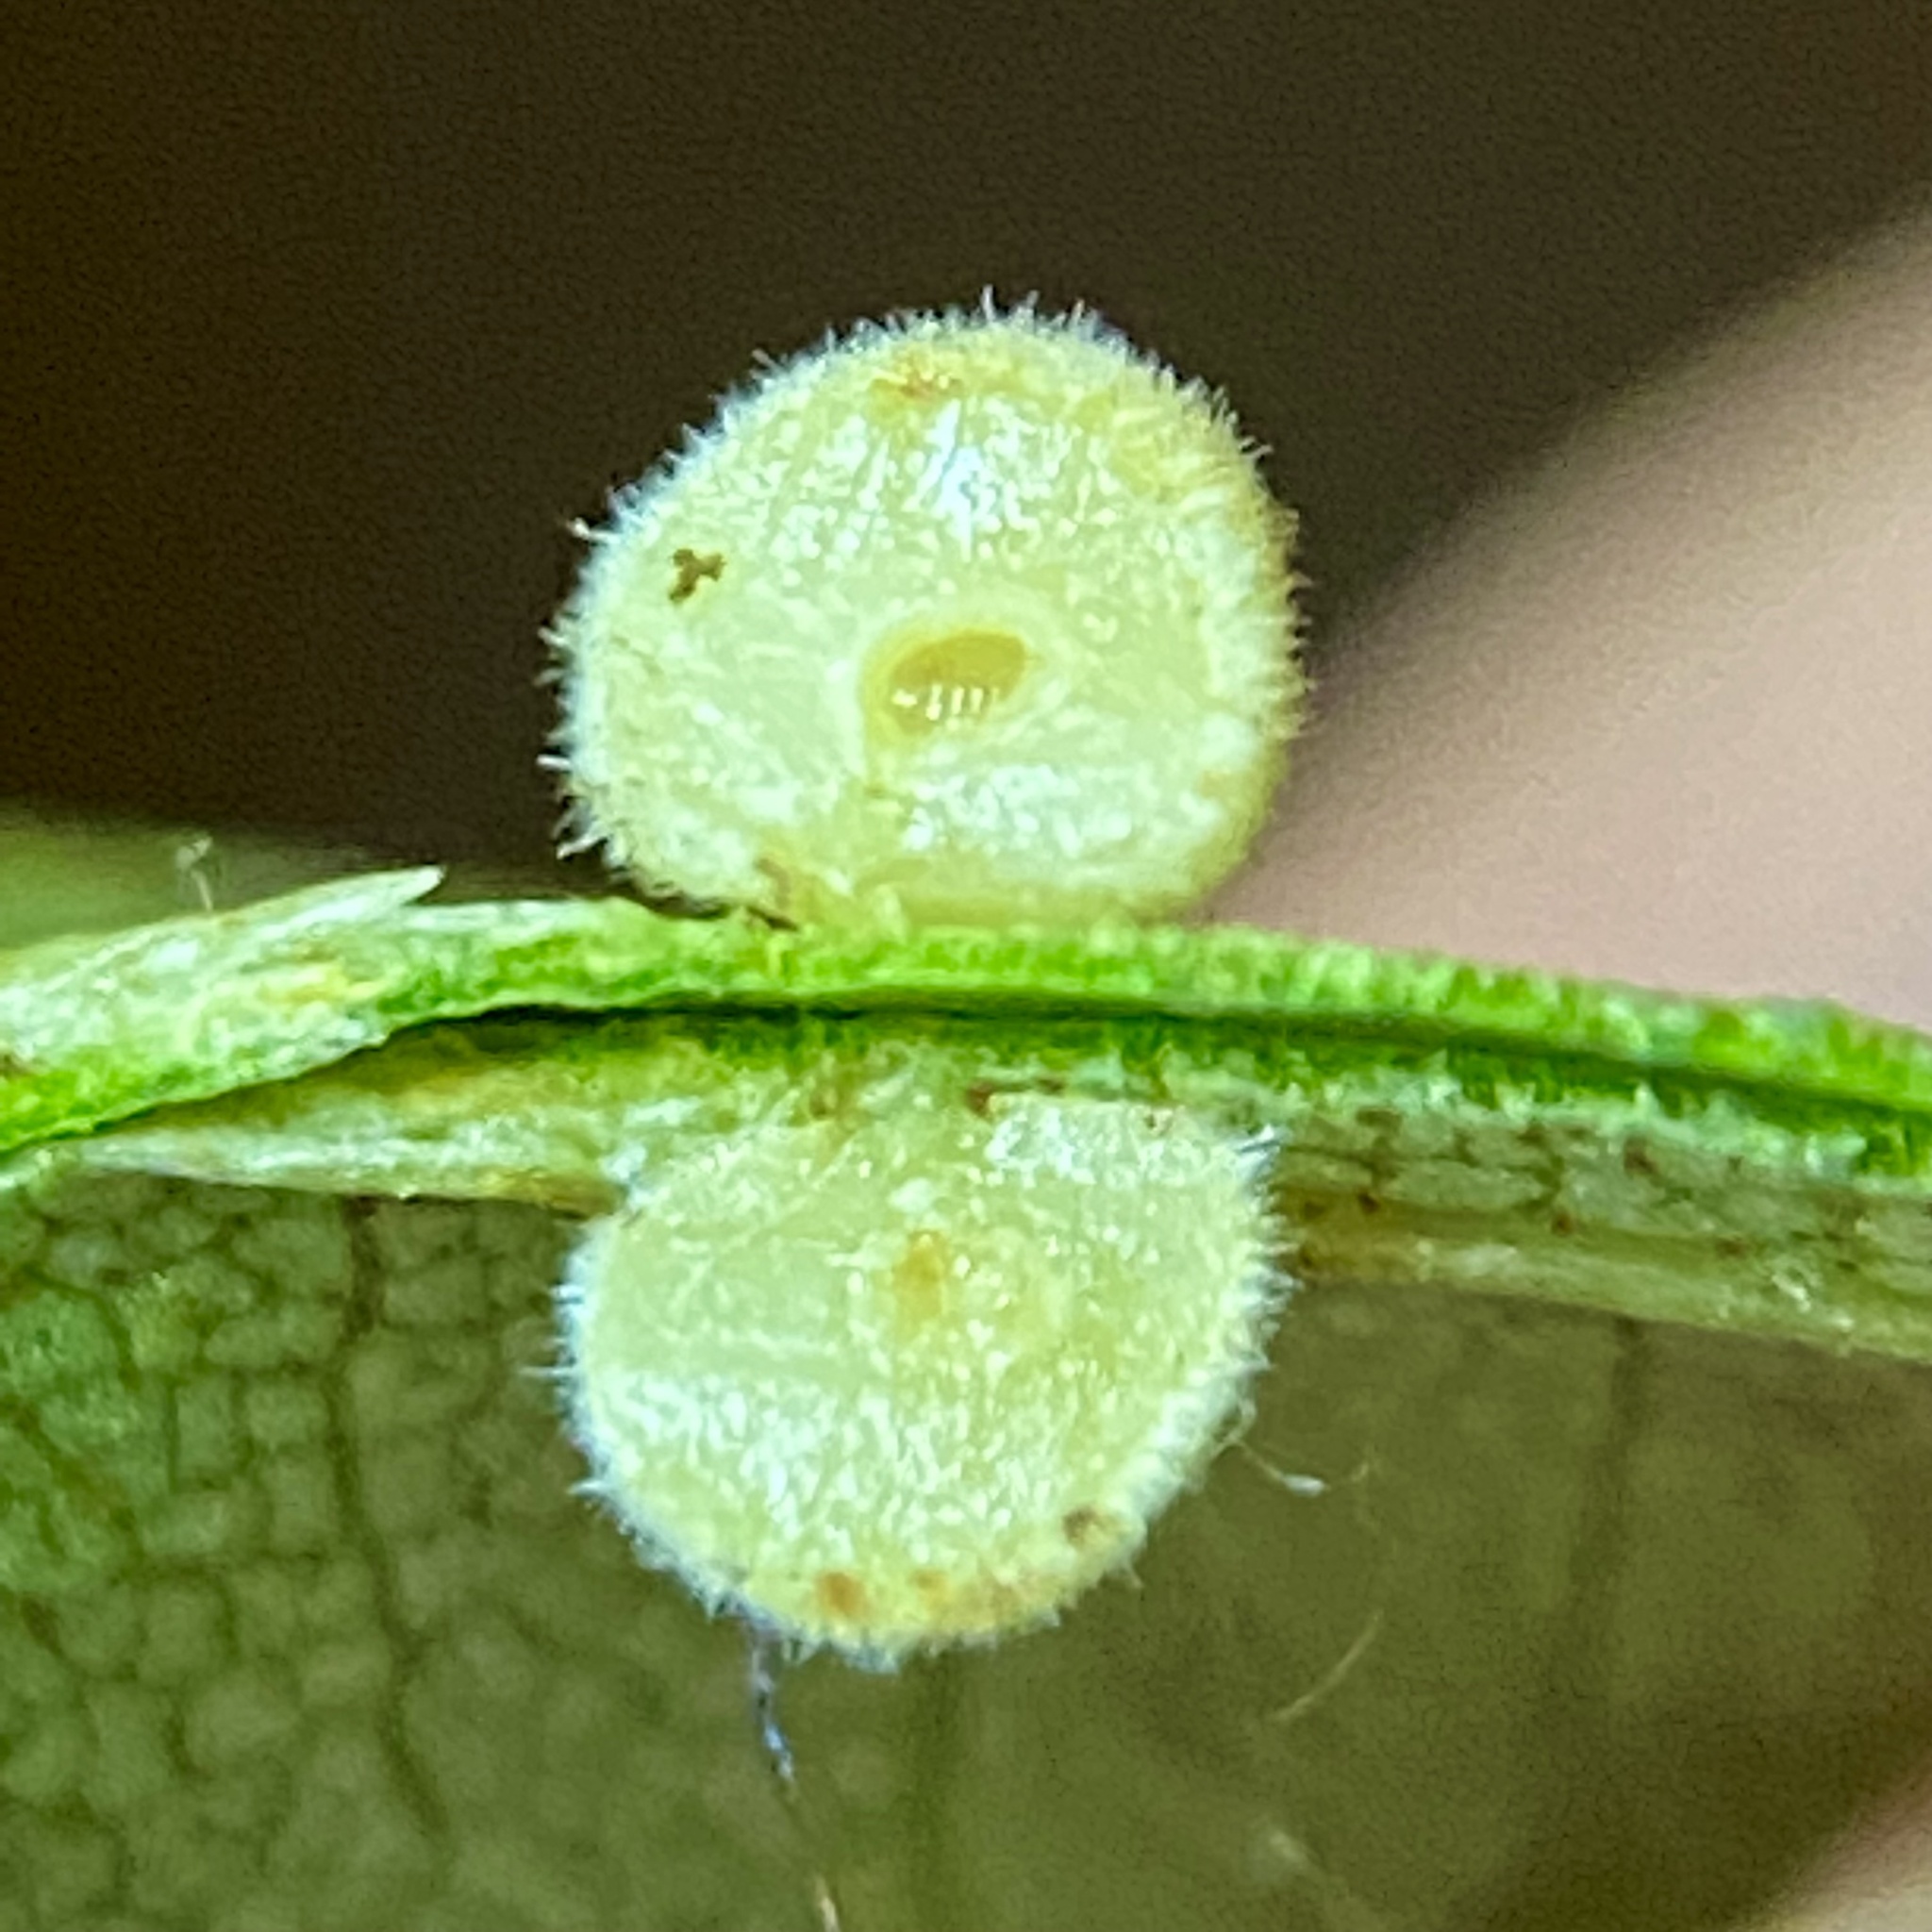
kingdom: Animalia
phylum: Arthropoda
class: Insecta
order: Diptera
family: Cecidomyiidae
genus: Caryomyia
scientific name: Caryomyia persicoides
